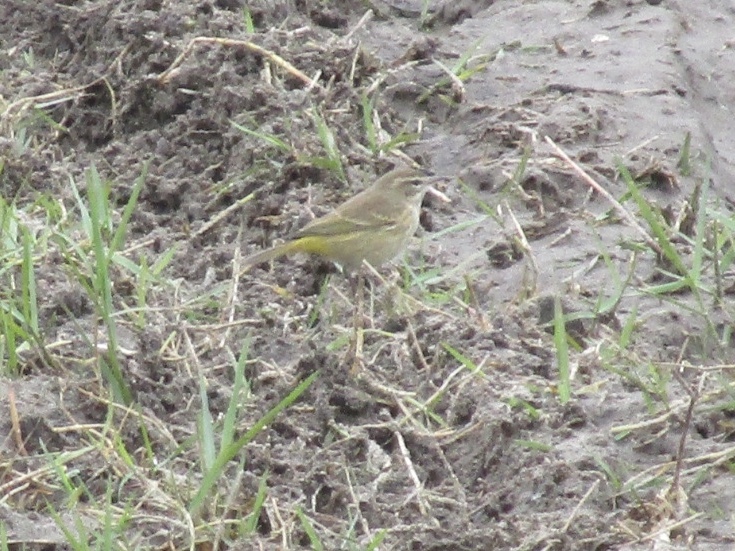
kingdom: Animalia
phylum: Chordata
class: Aves
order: Passeriformes
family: Parulidae
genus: Setophaga
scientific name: Setophaga palmarum
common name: Palm warbler
